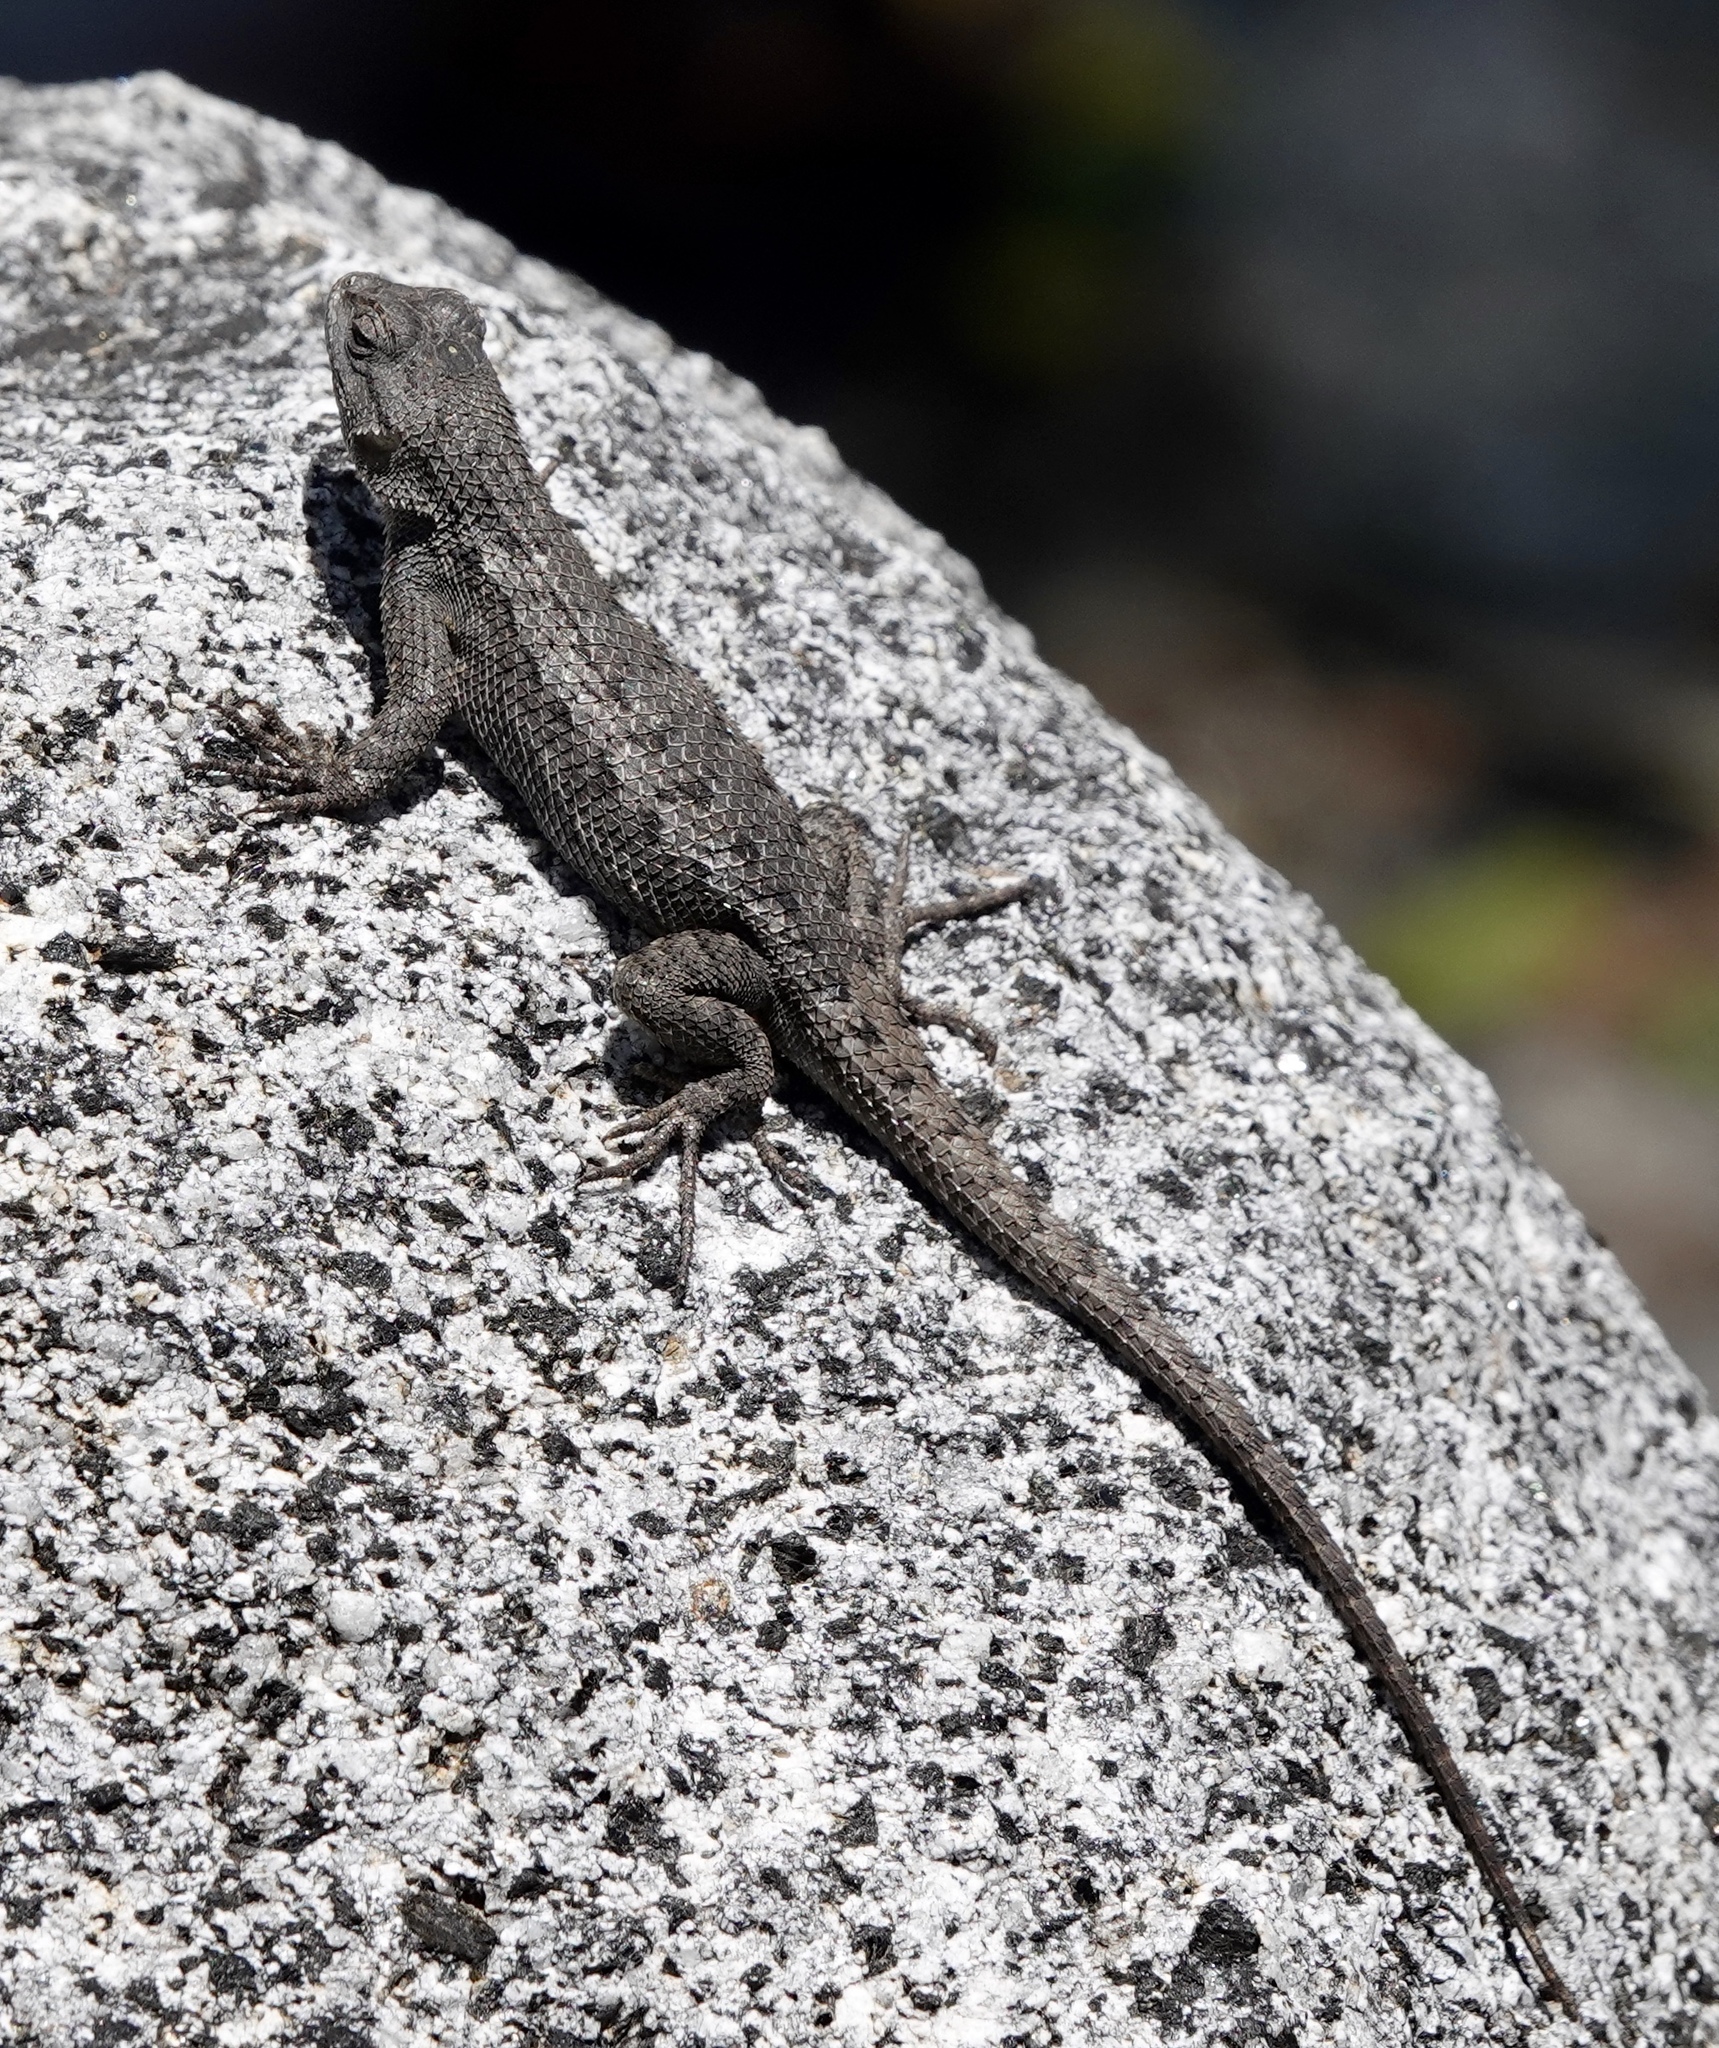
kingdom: Animalia
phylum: Chordata
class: Squamata
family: Phrynosomatidae
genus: Sceloporus
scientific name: Sceloporus occidentalis
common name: Western fence lizard
